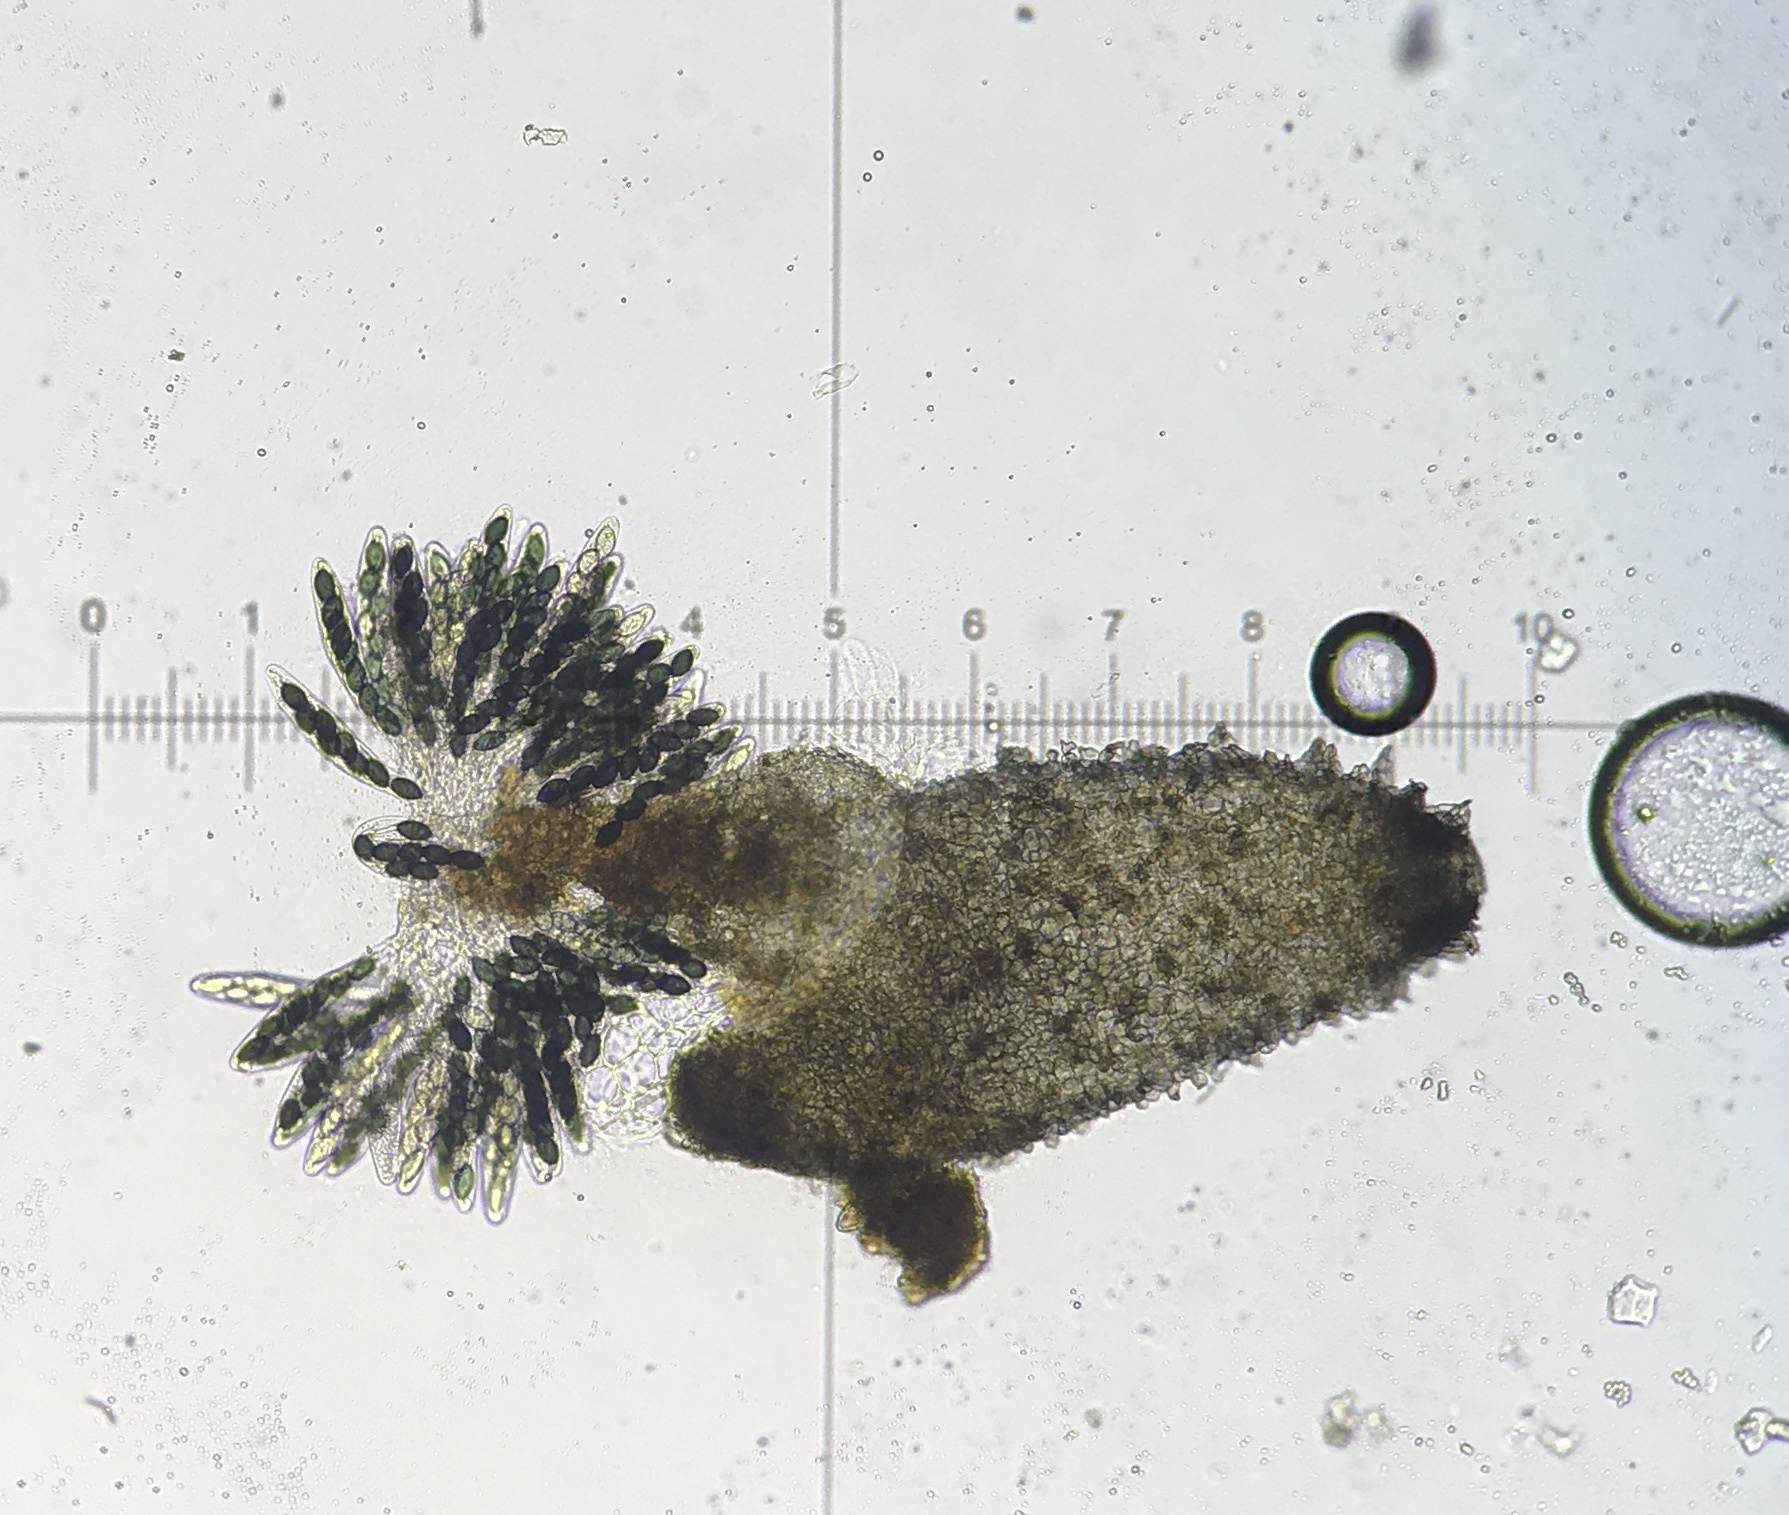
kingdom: Fungi
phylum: Ascomycota
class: Sordariomycetes
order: Sordariales
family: Lasiosphaeriaceae
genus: Schizothecium
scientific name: Schizothecium miniglutinans
